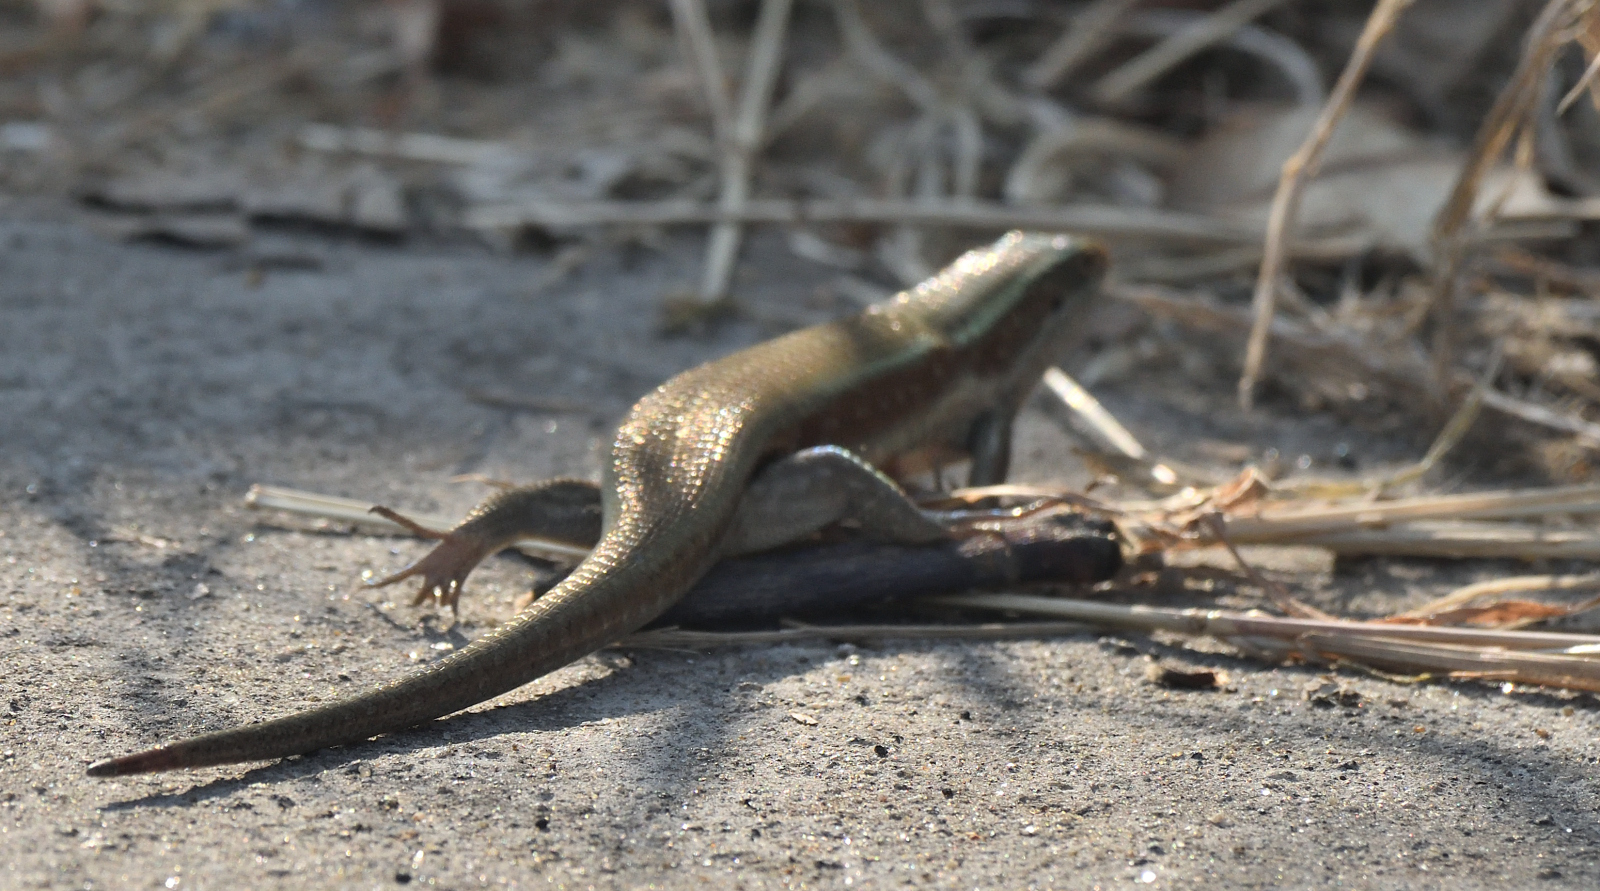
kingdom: Animalia
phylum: Chordata
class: Squamata
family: Scincidae
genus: Eutropis
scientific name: Eutropis carinata
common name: Keeled indian mabuya
